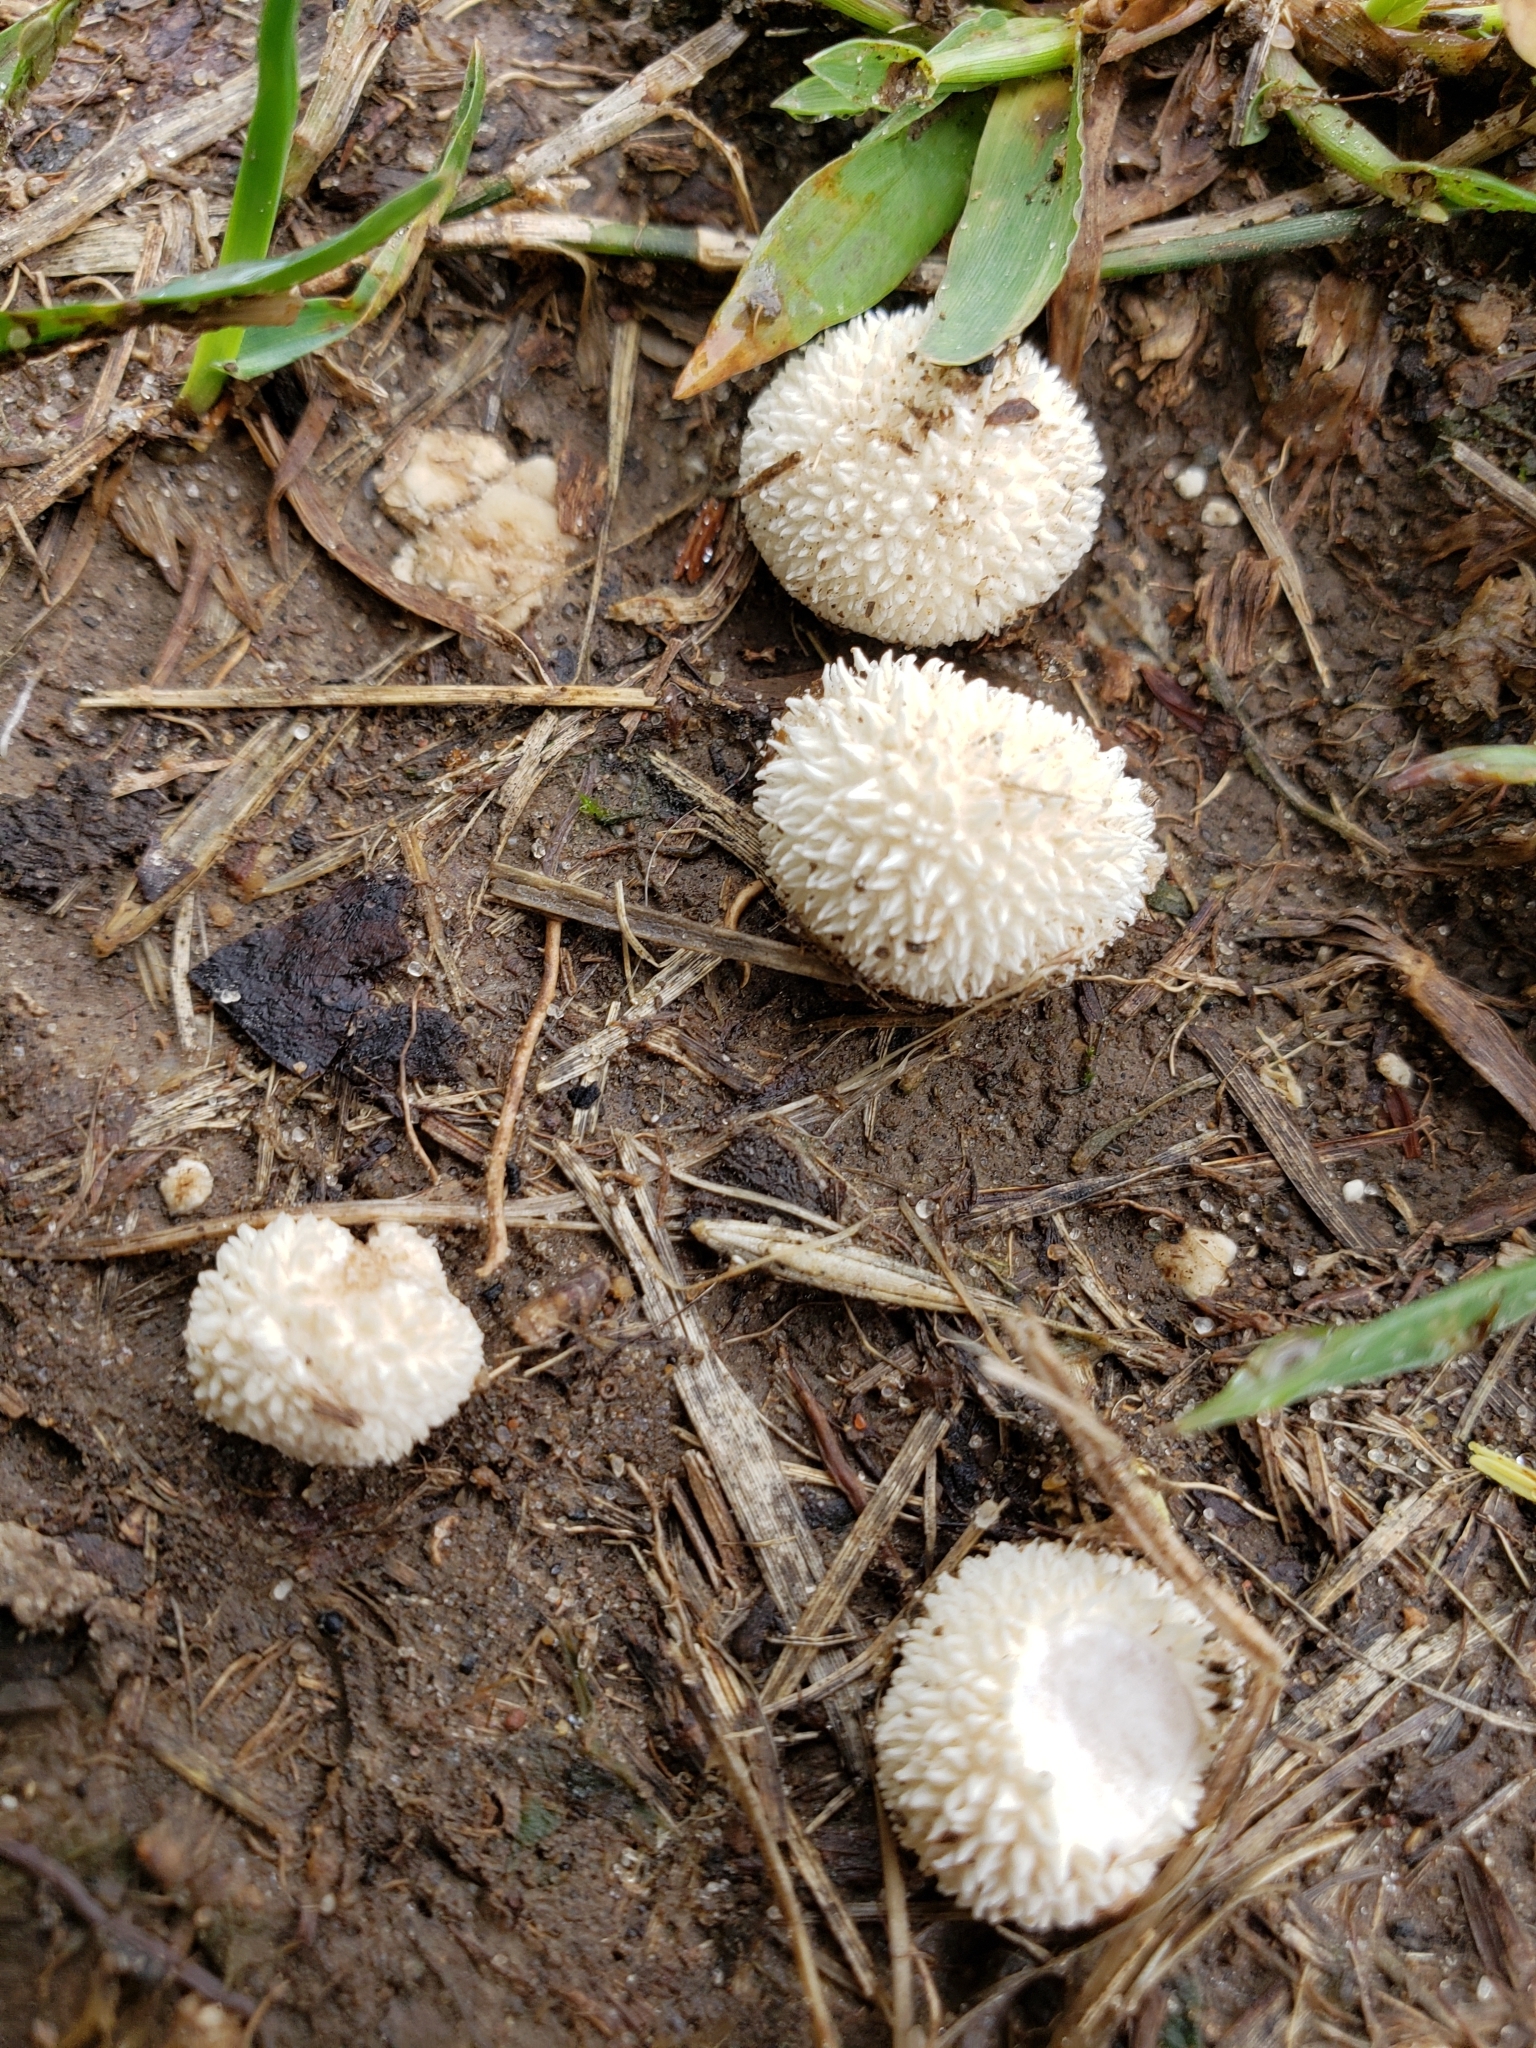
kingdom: Fungi
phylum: Basidiomycota
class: Agaricomycetes
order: Agaricales
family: Agaricaceae
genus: Lycoperdon
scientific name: Lycoperdon marginatum
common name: Peeling puffball
